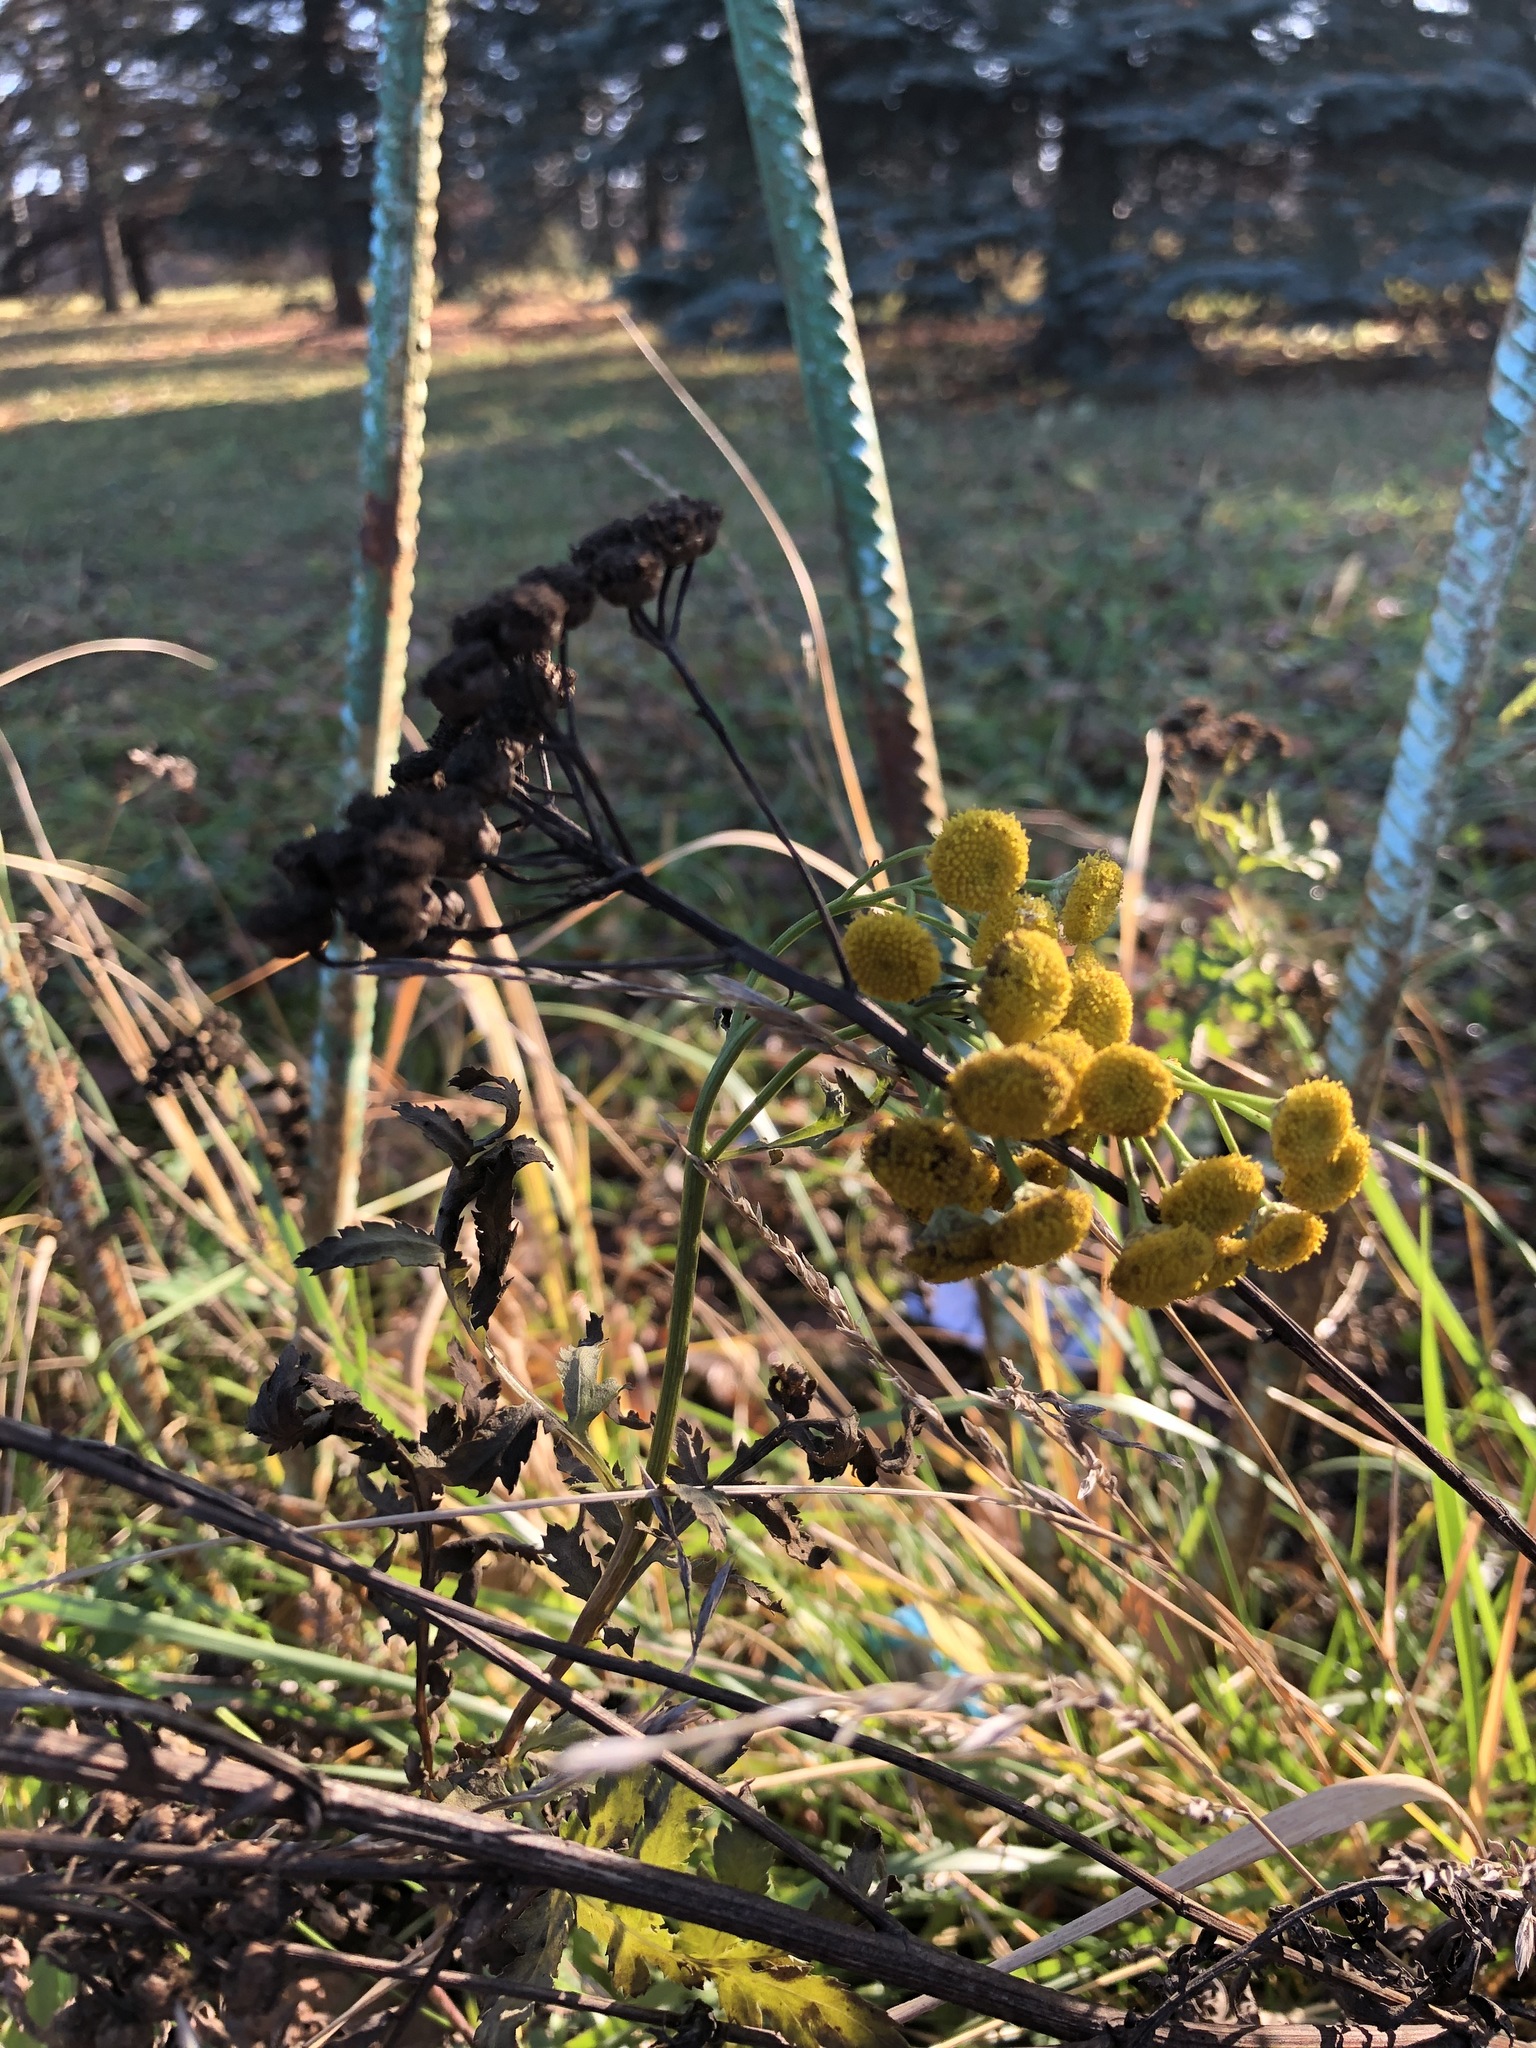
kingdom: Plantae
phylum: Tracheophyta
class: Magnoliopsida
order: Asterales
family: Asteraceae
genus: Tanacetum
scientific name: Tanacetum vulgare
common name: Common tansy
